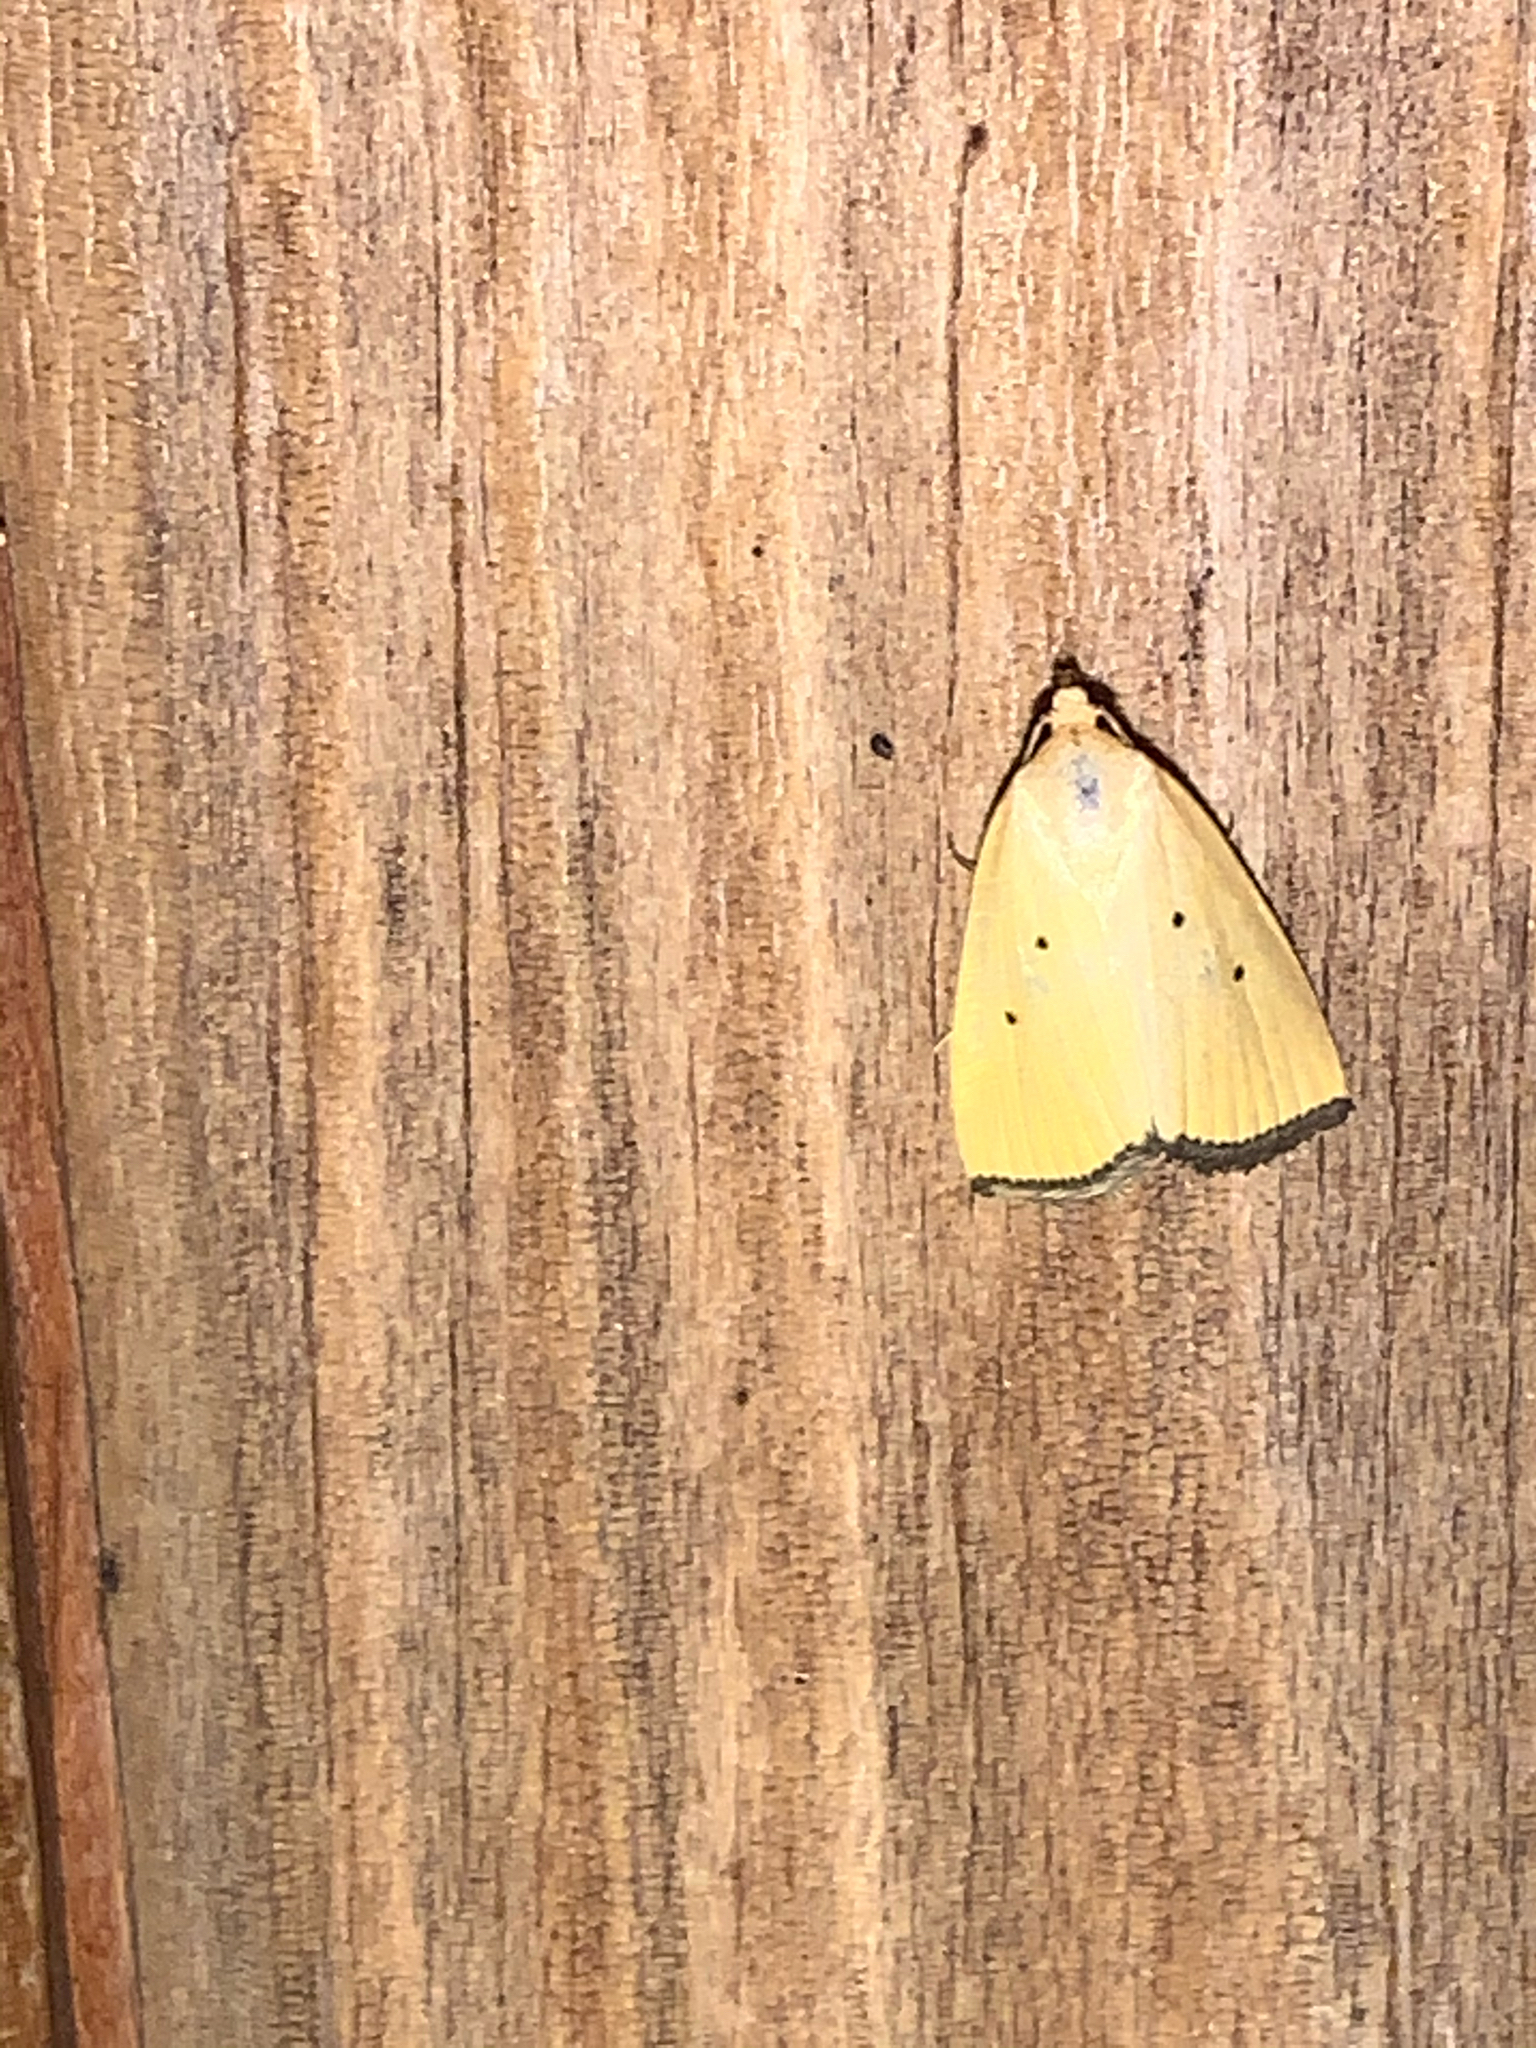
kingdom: Animalia
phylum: Arthropoda
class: Insecta
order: Lepidoptera
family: Noctuidae
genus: Marimatha
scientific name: Marimatha nigrofimbria
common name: Black-bordered lemon moth
